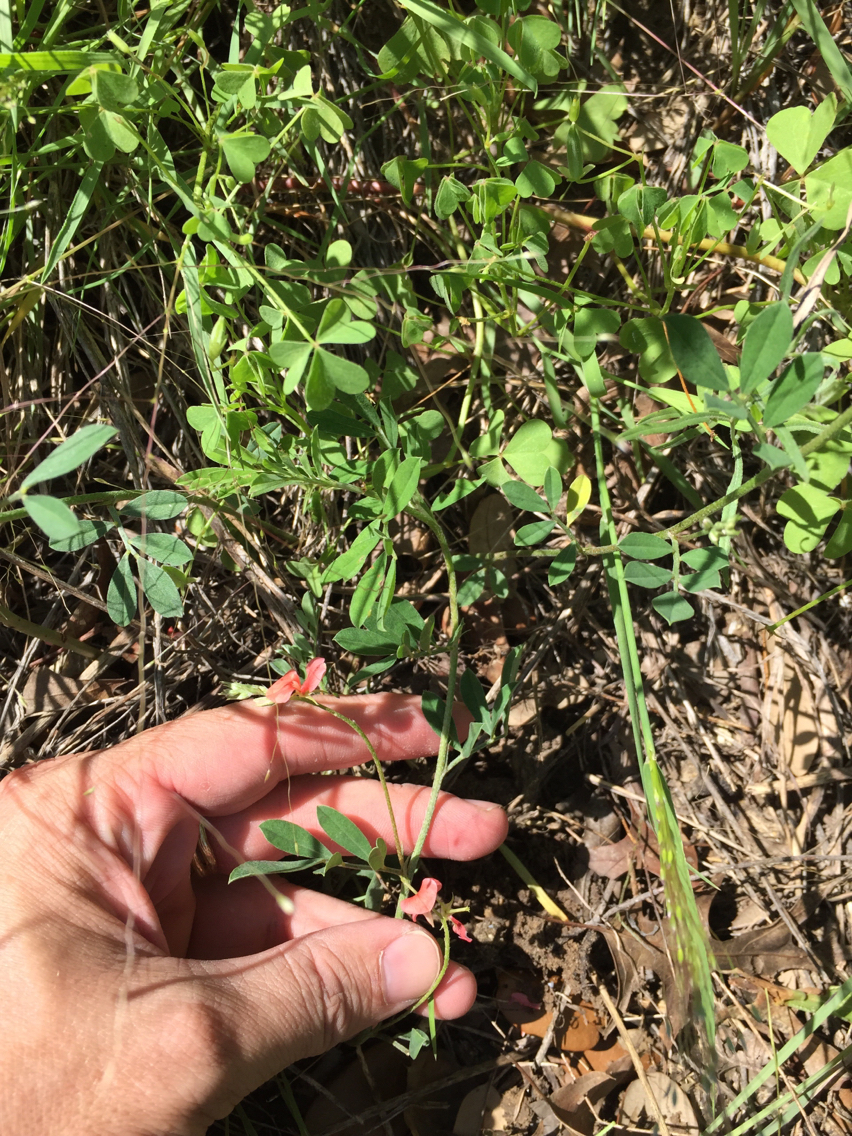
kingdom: Plantae
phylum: Tracheophyta
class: Magnoliopsida
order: Fabales
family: Fabaceae
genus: Indigofera
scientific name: Indigofera miniata
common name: Coast indigo
